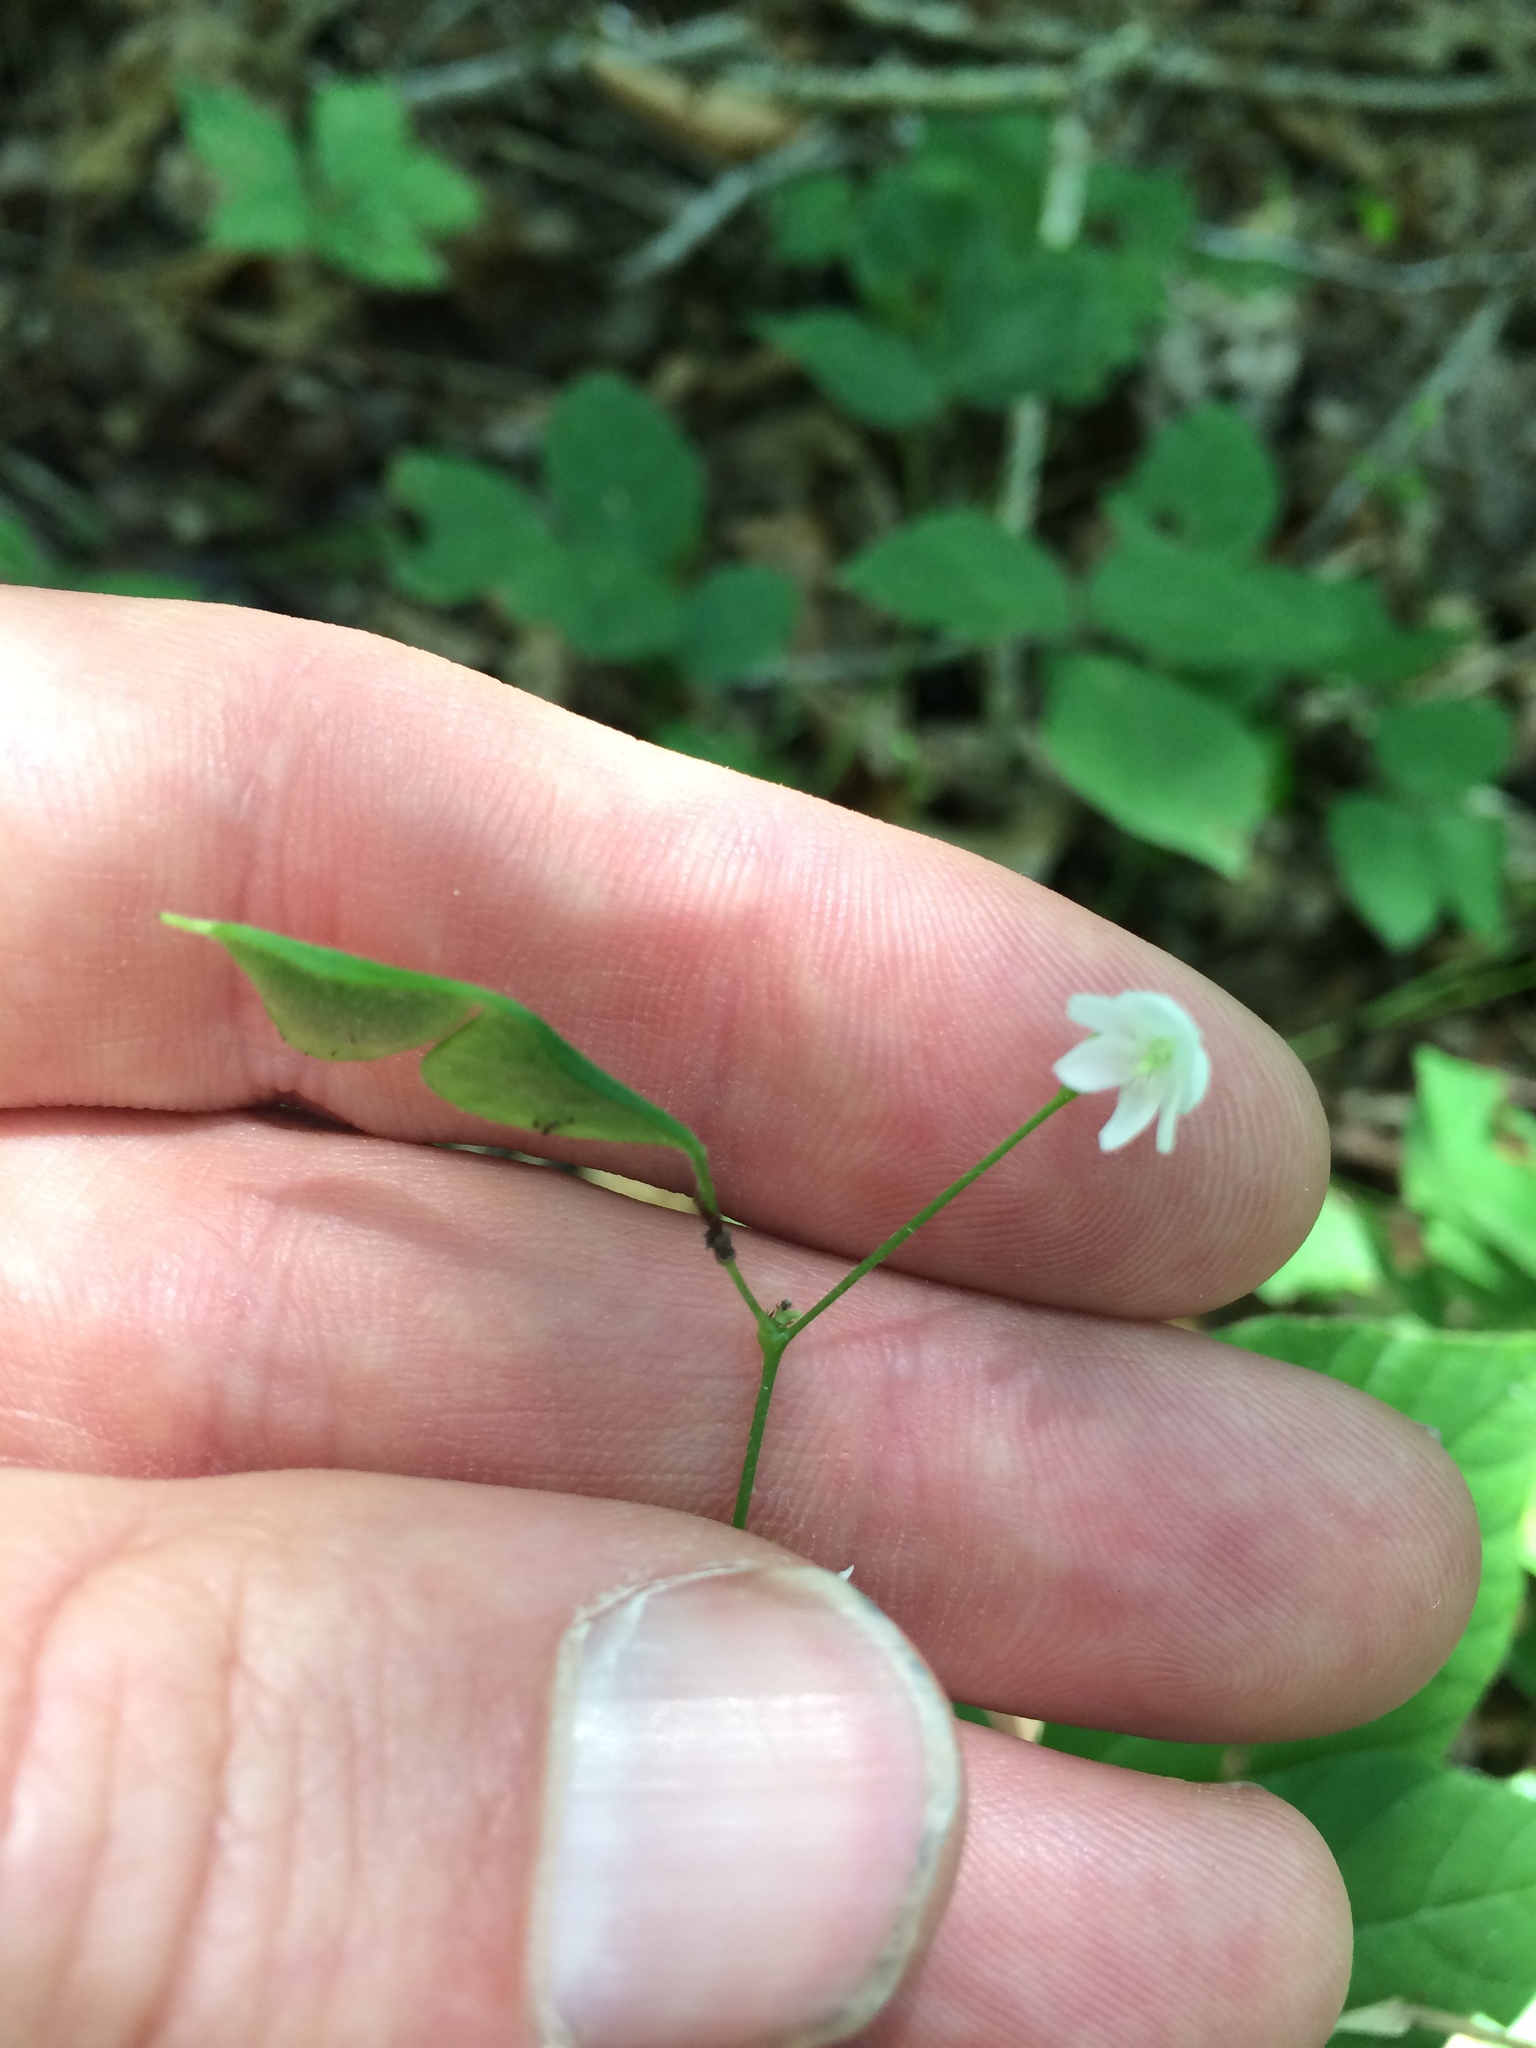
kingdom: Plantae
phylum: Tracheophyta
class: Magnoliopsida
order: Fabales
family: Fabaceae
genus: Hylodesmum
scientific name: Hylodesmum pauciflorum
